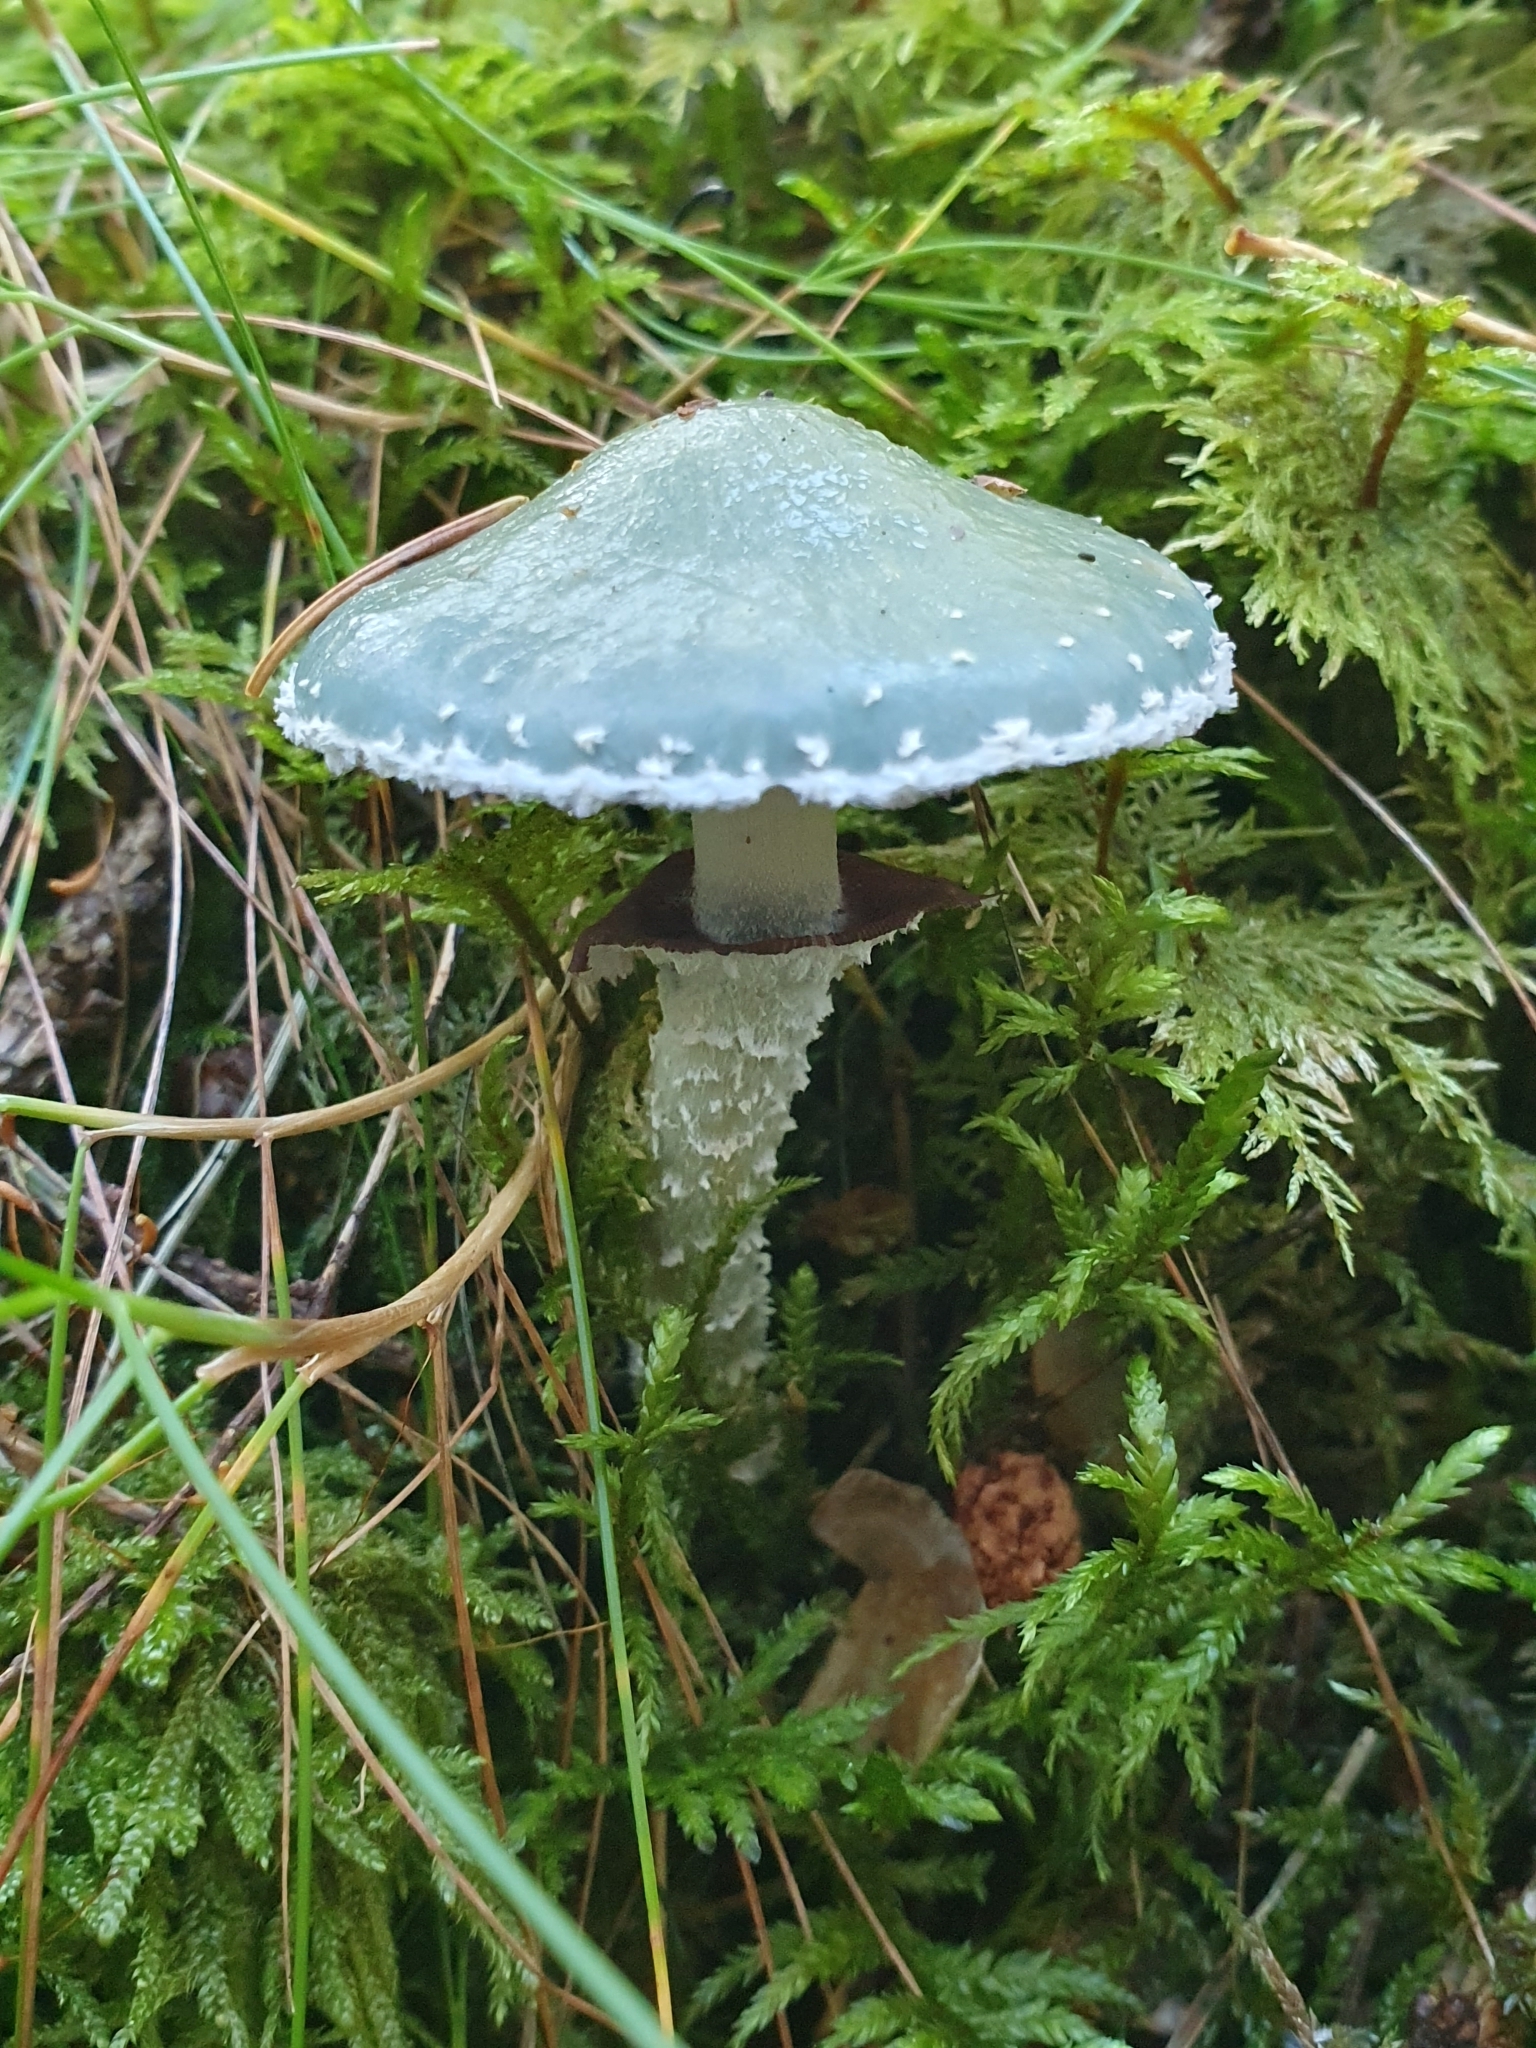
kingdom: Fungi
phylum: Basidiomycota
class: Agaricomycetes
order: Agaricales
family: Strophariaceae
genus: Stropharia
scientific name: Stropharia aeruginosa
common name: Verdigris roundhead
